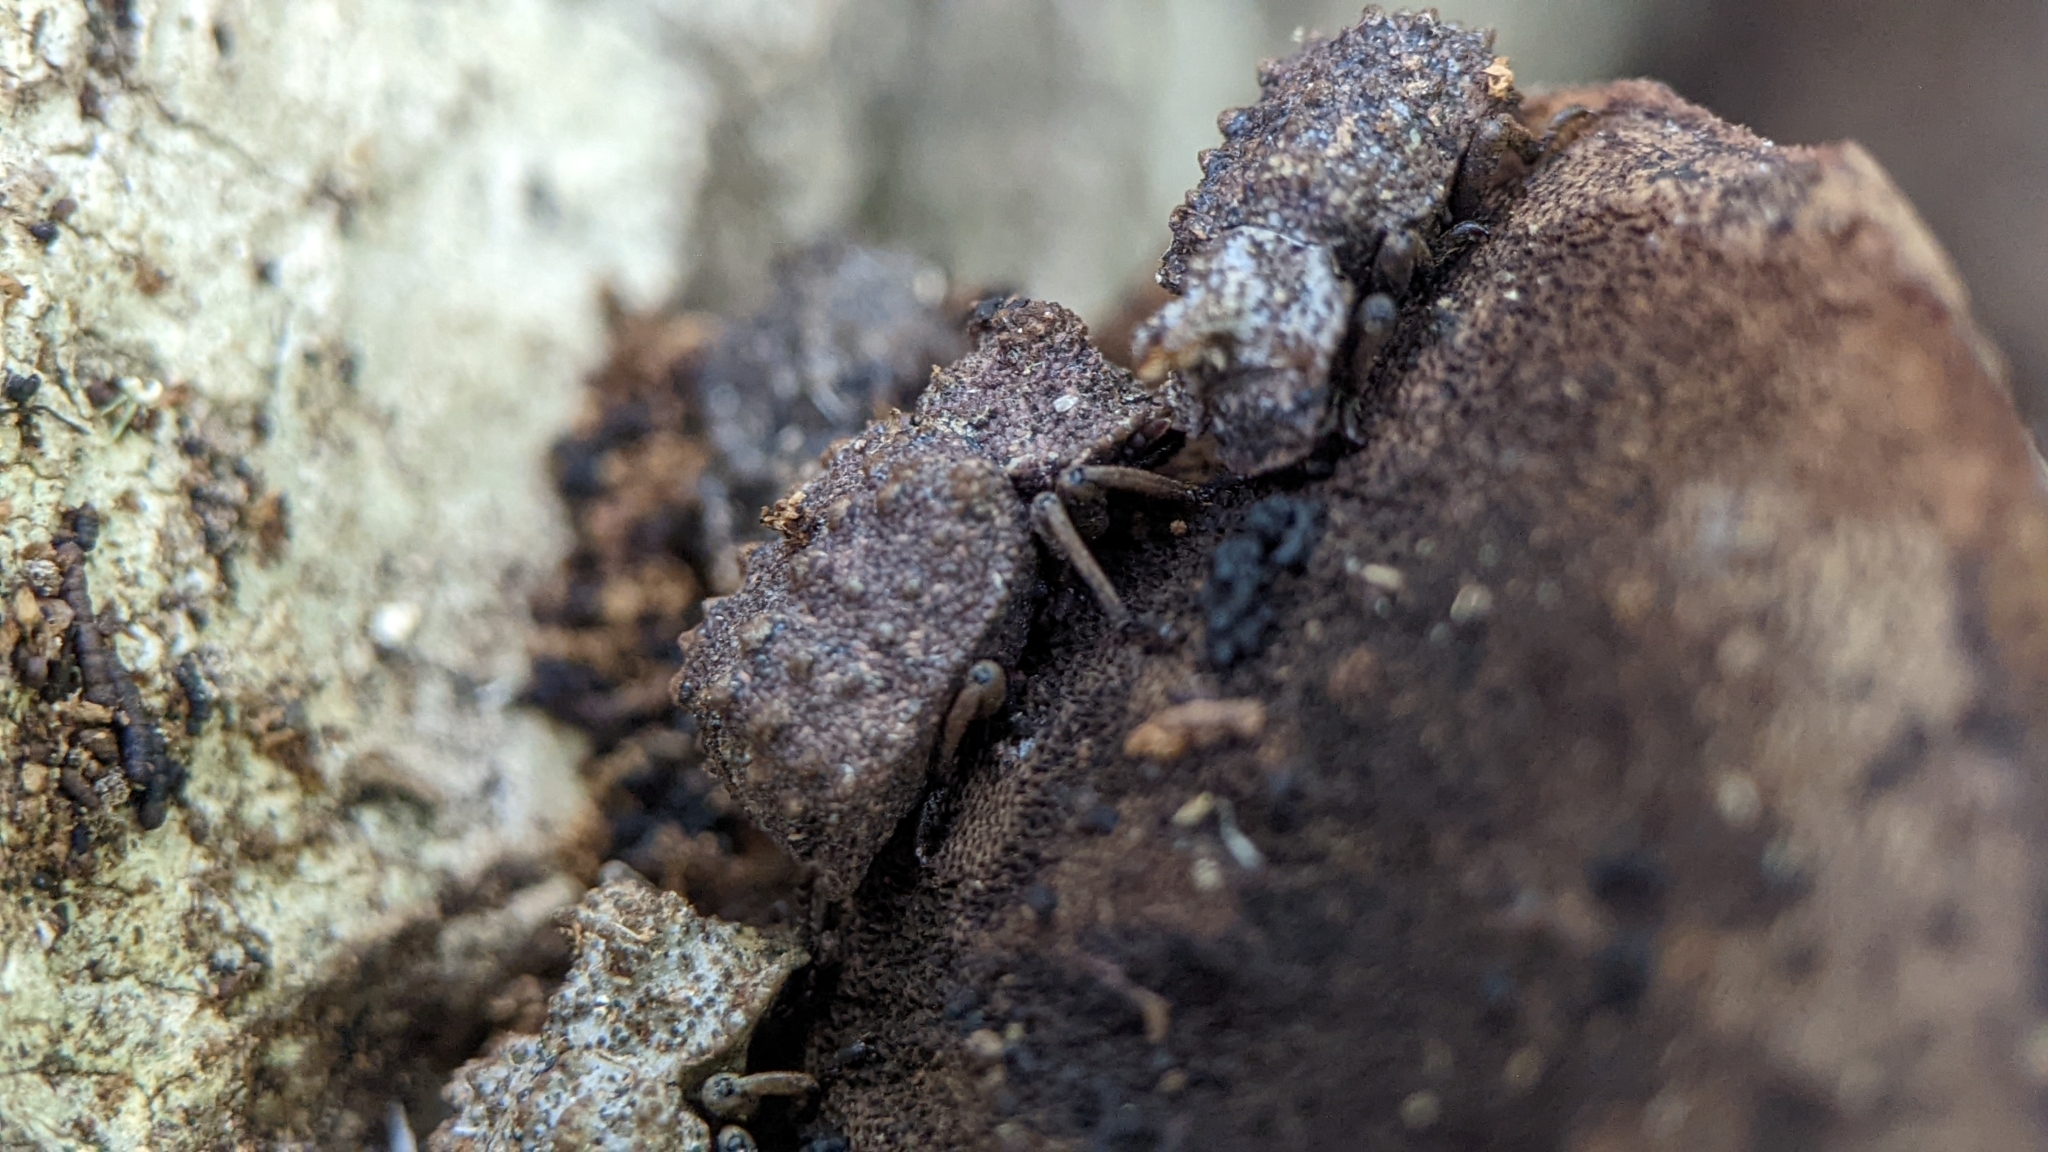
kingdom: Animalia
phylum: Arthropoda
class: Insecta
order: Coleoptera
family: Tenebrionidae
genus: Gnatocerus
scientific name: Gnatocerus cornutus
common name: Broad-horned flour beetle
